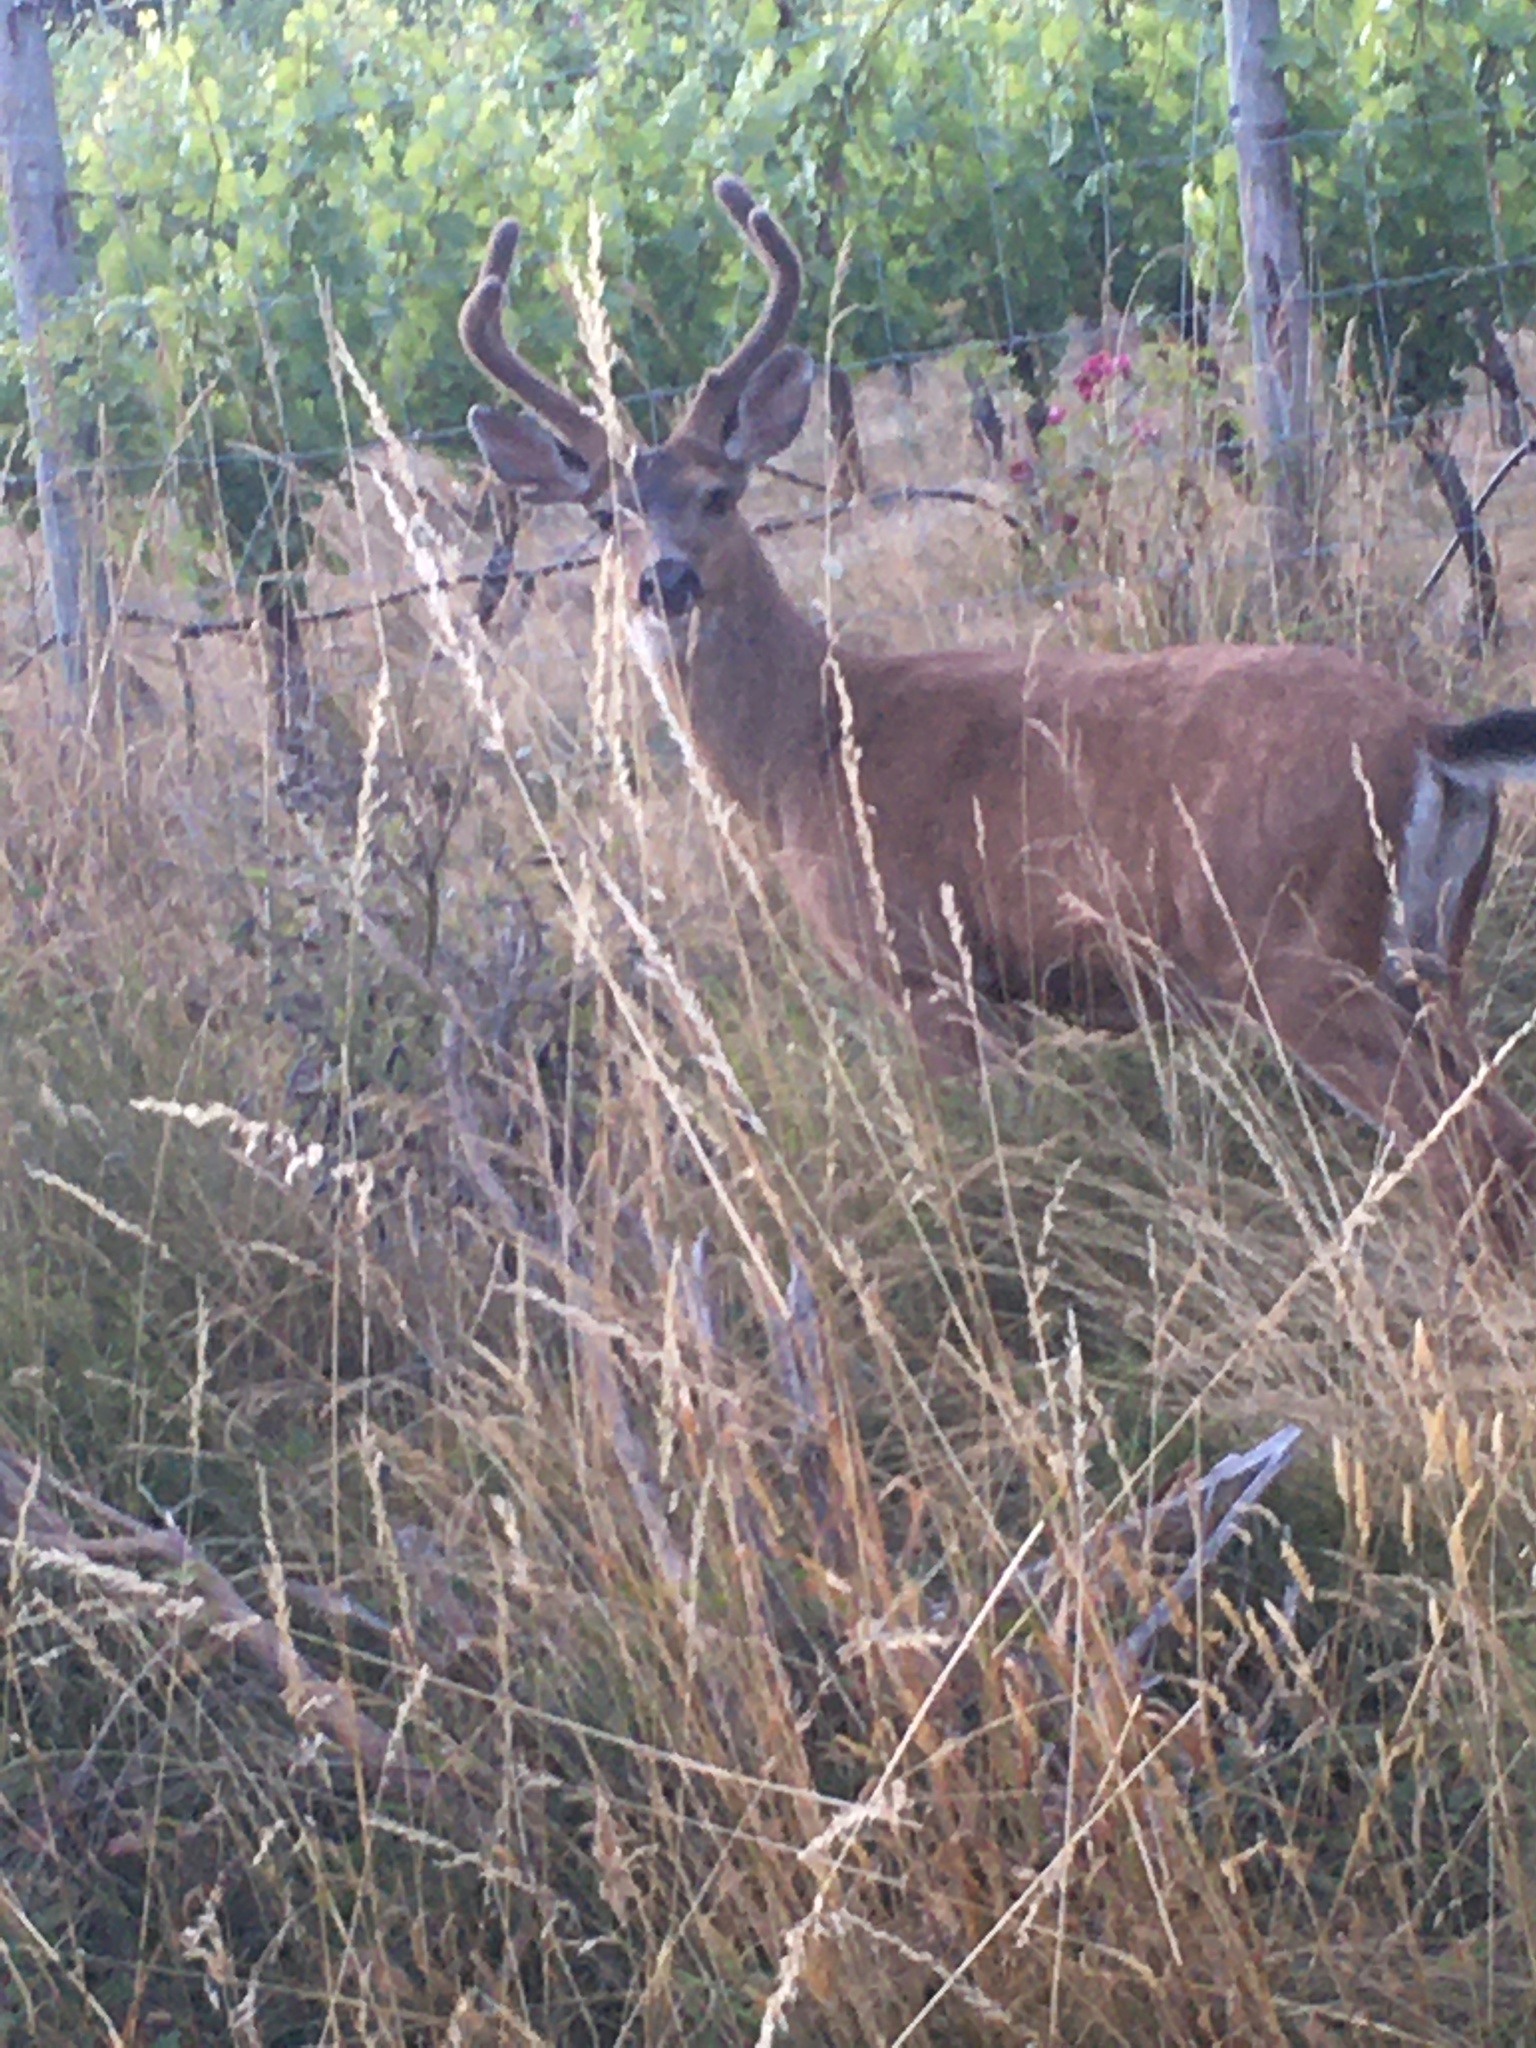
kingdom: Animalia
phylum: Chordata
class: Mammalia
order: Artiodactyla
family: Cervidae
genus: Odocoileus
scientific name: Odocoileus hemionus
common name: Mule deer
